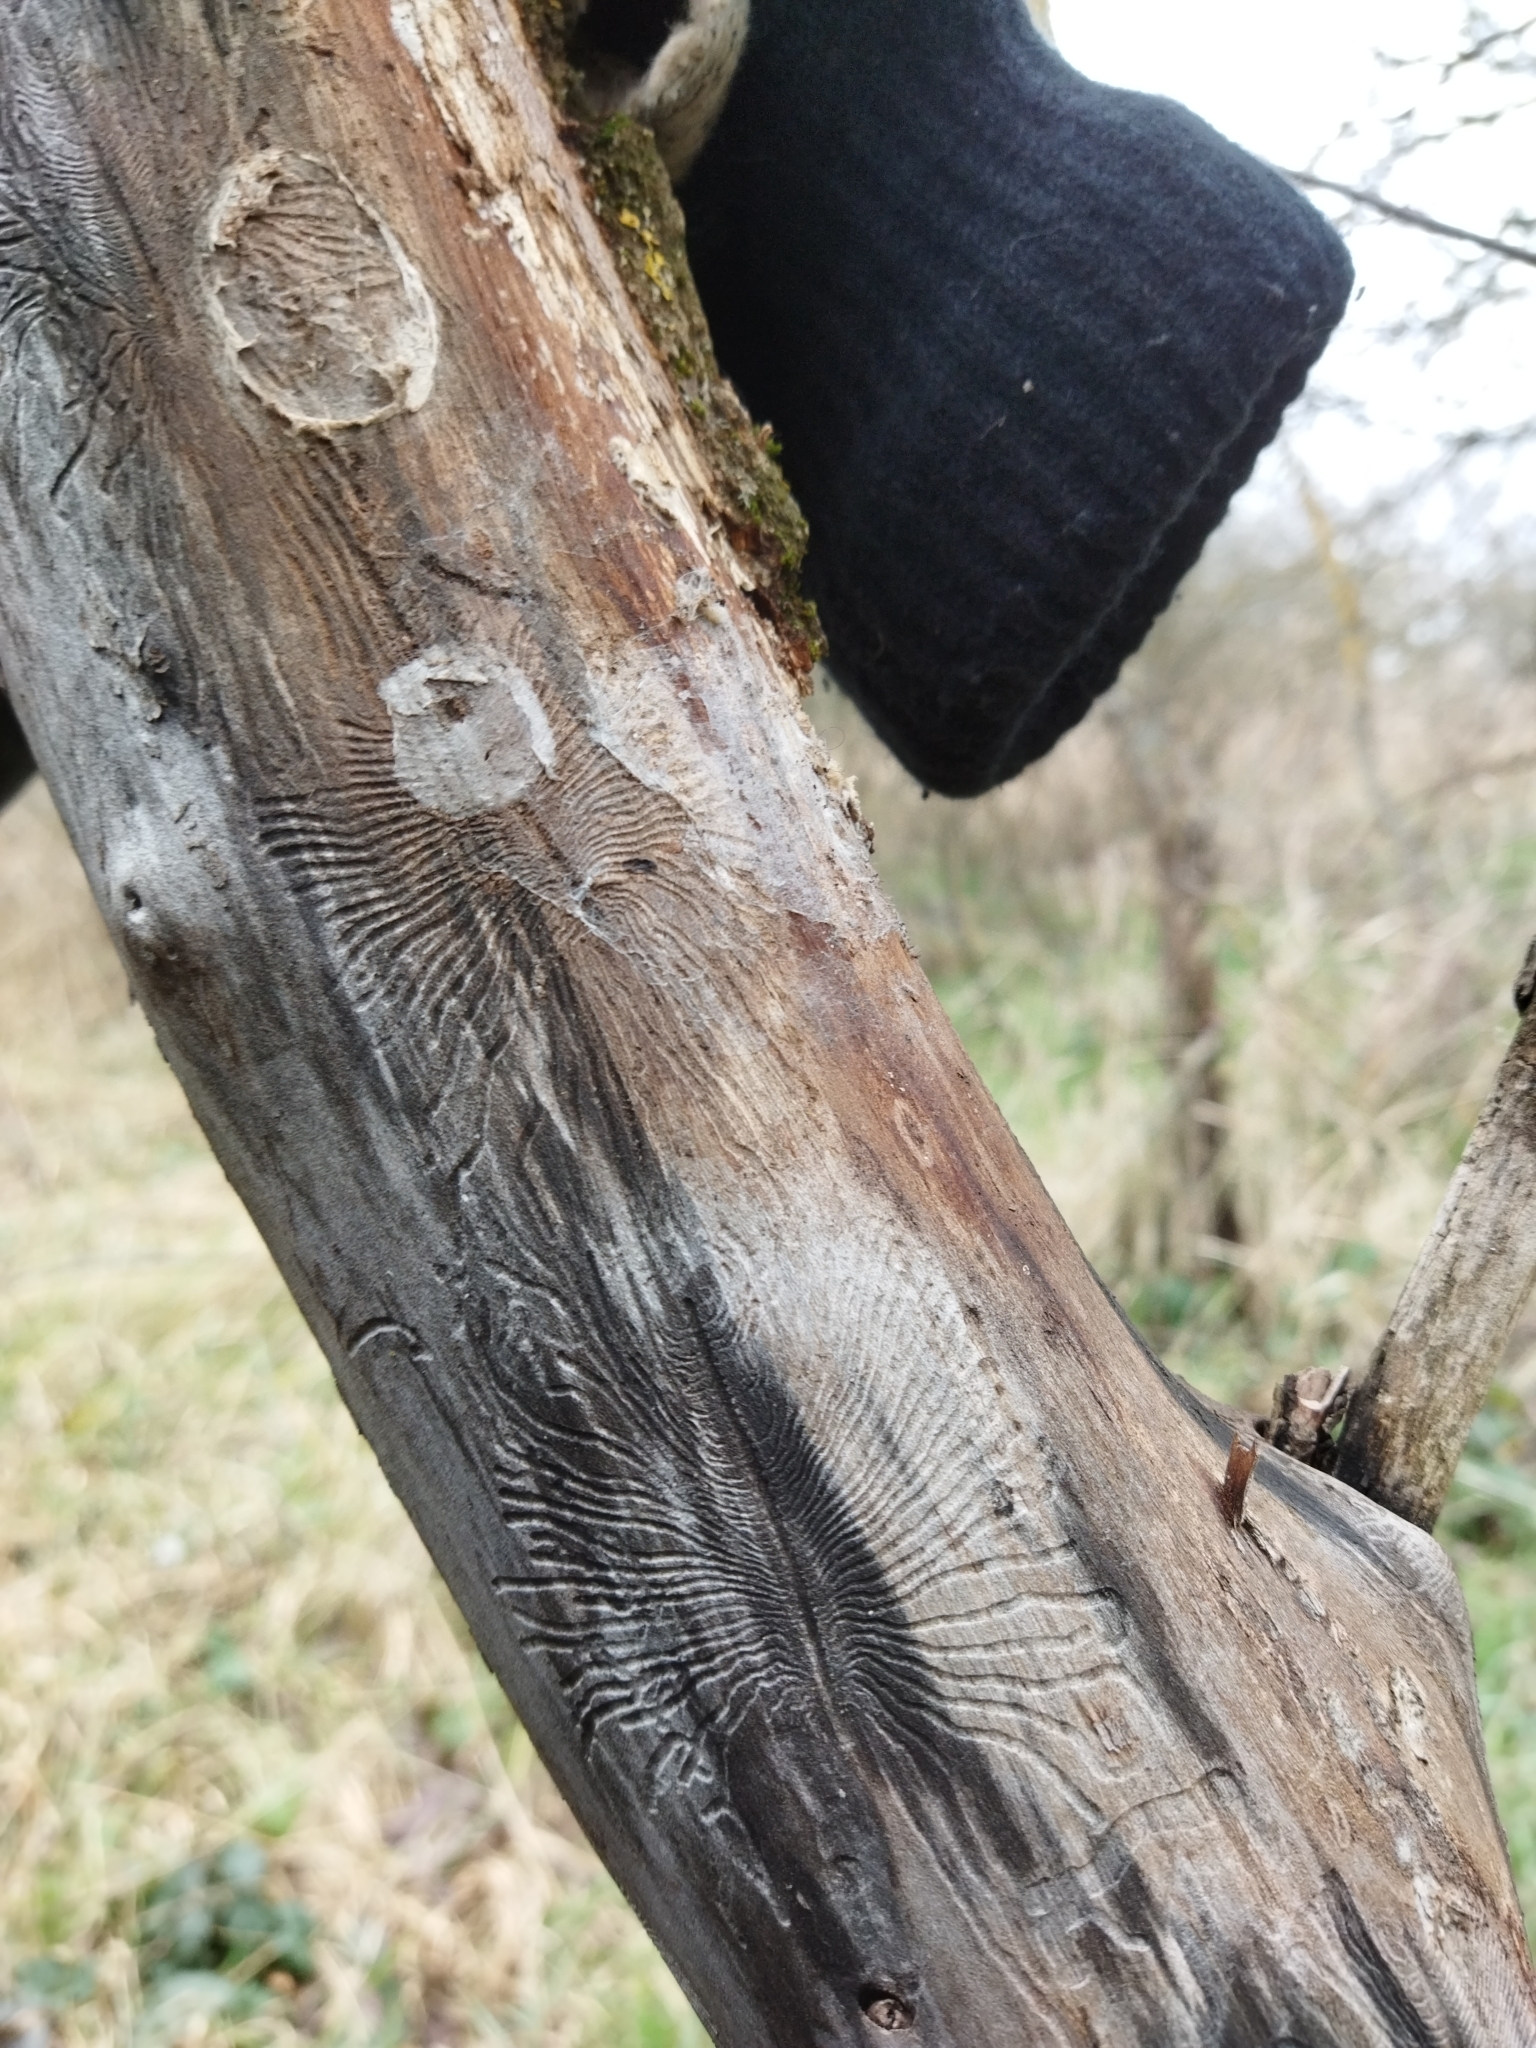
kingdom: Animalia
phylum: Arthropoda
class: Insecta
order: Coleoptera
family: Curculionidae
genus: Scolytus
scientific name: Scolytus multistriatus
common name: European elm bark beetle
